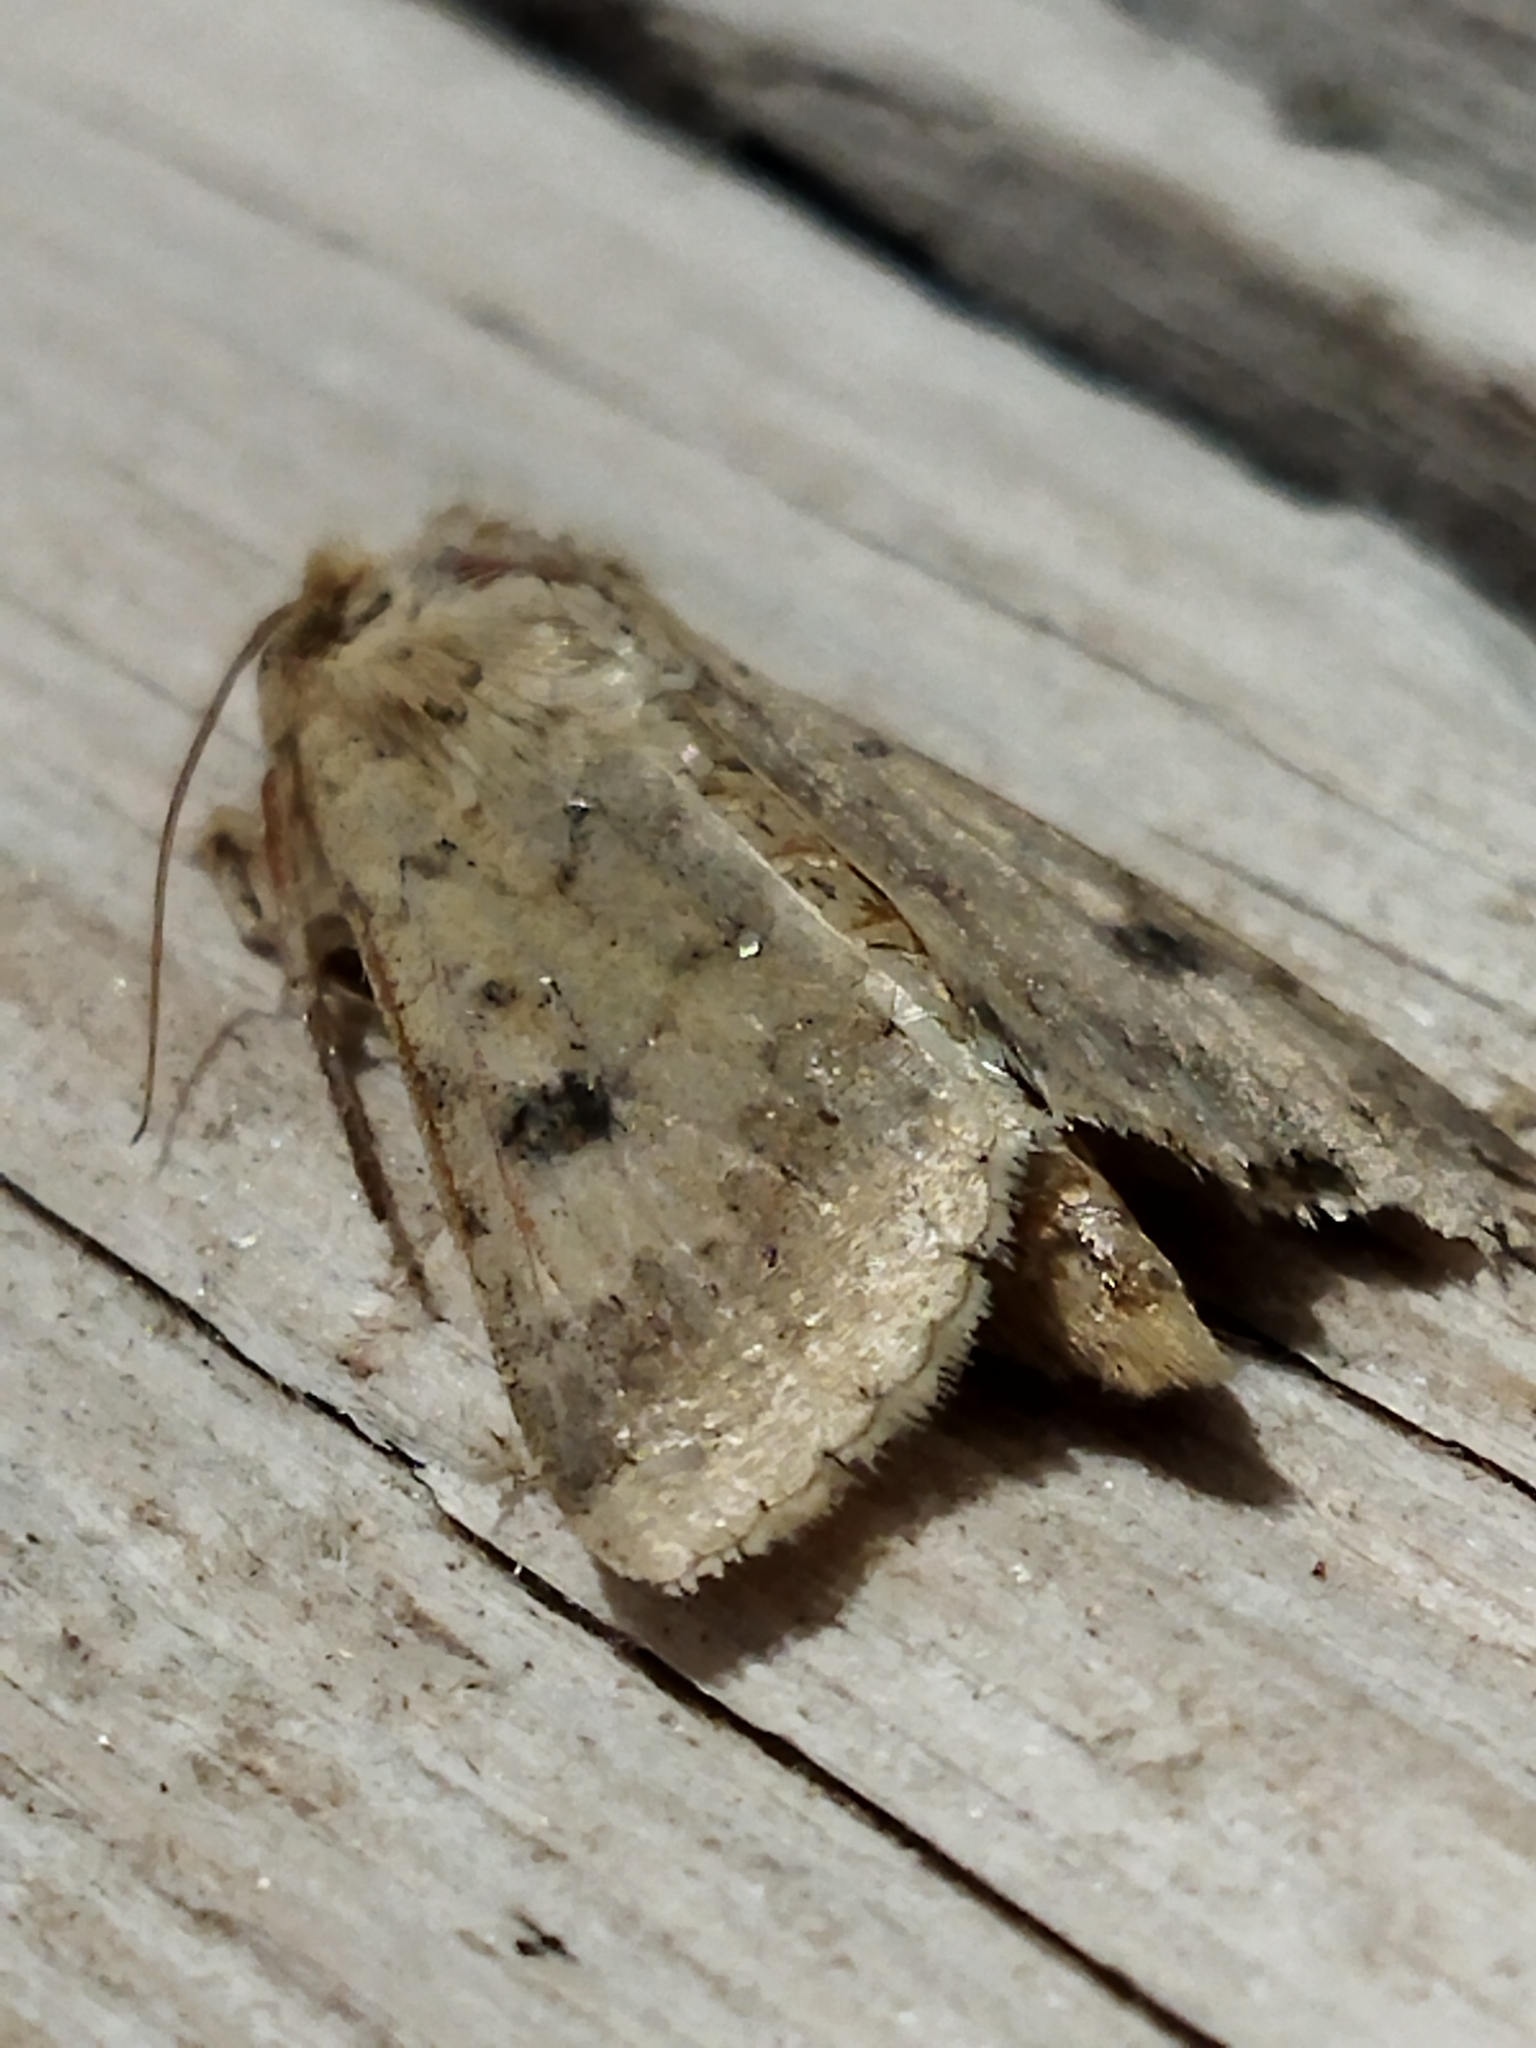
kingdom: Animalia
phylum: Arthropoda
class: Insecta
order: Lepidoptera
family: Noctuidae
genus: Helicoverpa
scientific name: Helicoverpa armigera
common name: Cotton bollworm
